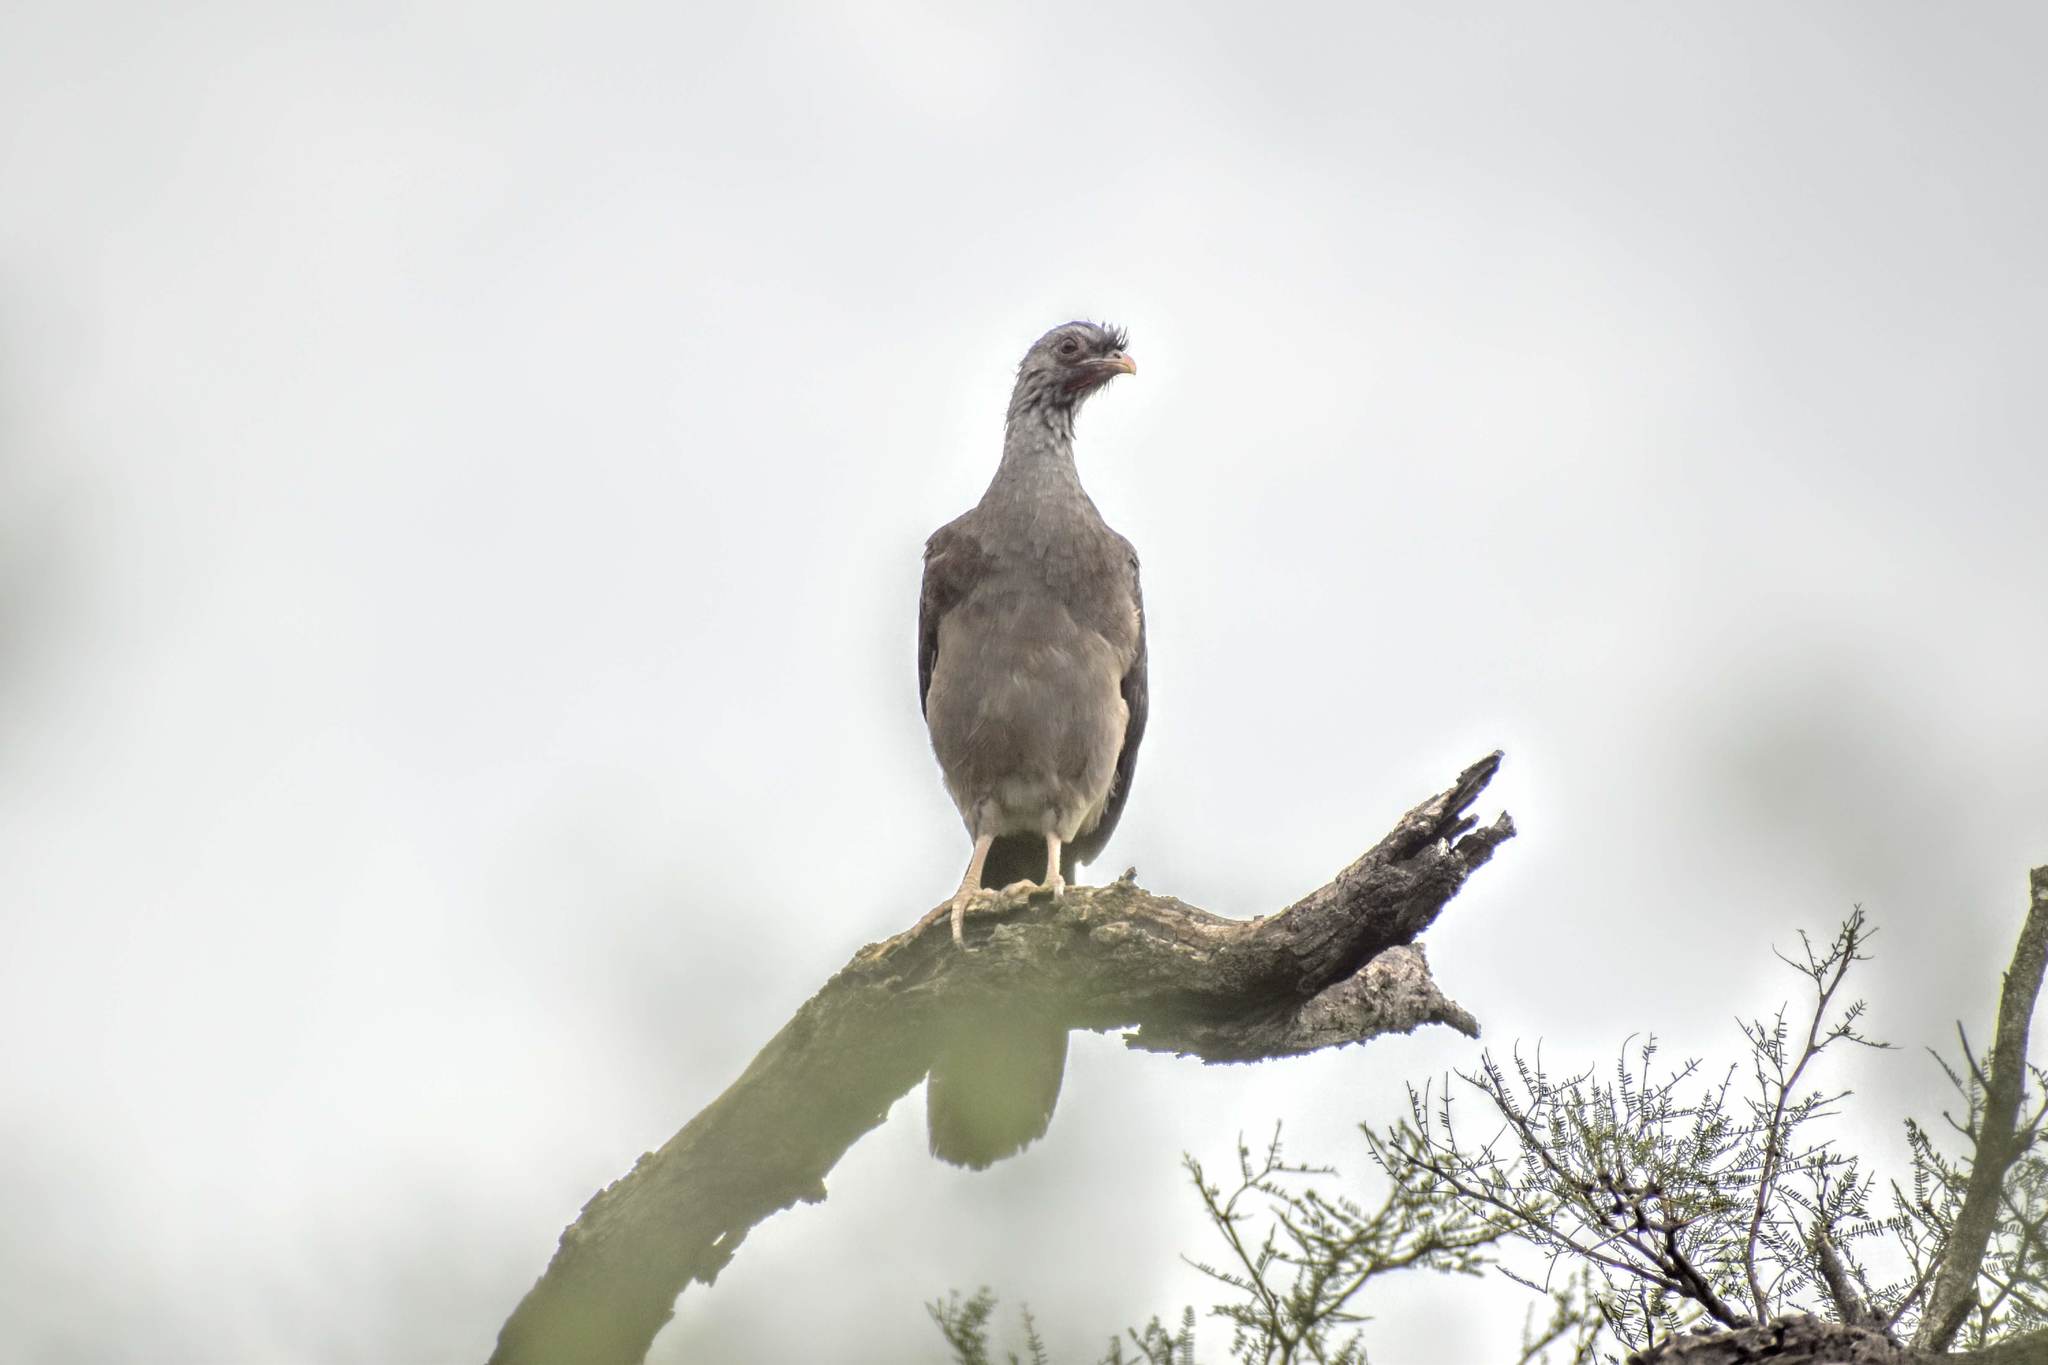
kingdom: Animalia
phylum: Chordata
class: Aves
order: Galliformes
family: Cracidae
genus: Ortalis
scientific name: Ortalis canicollis
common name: Chaco chachalaca
